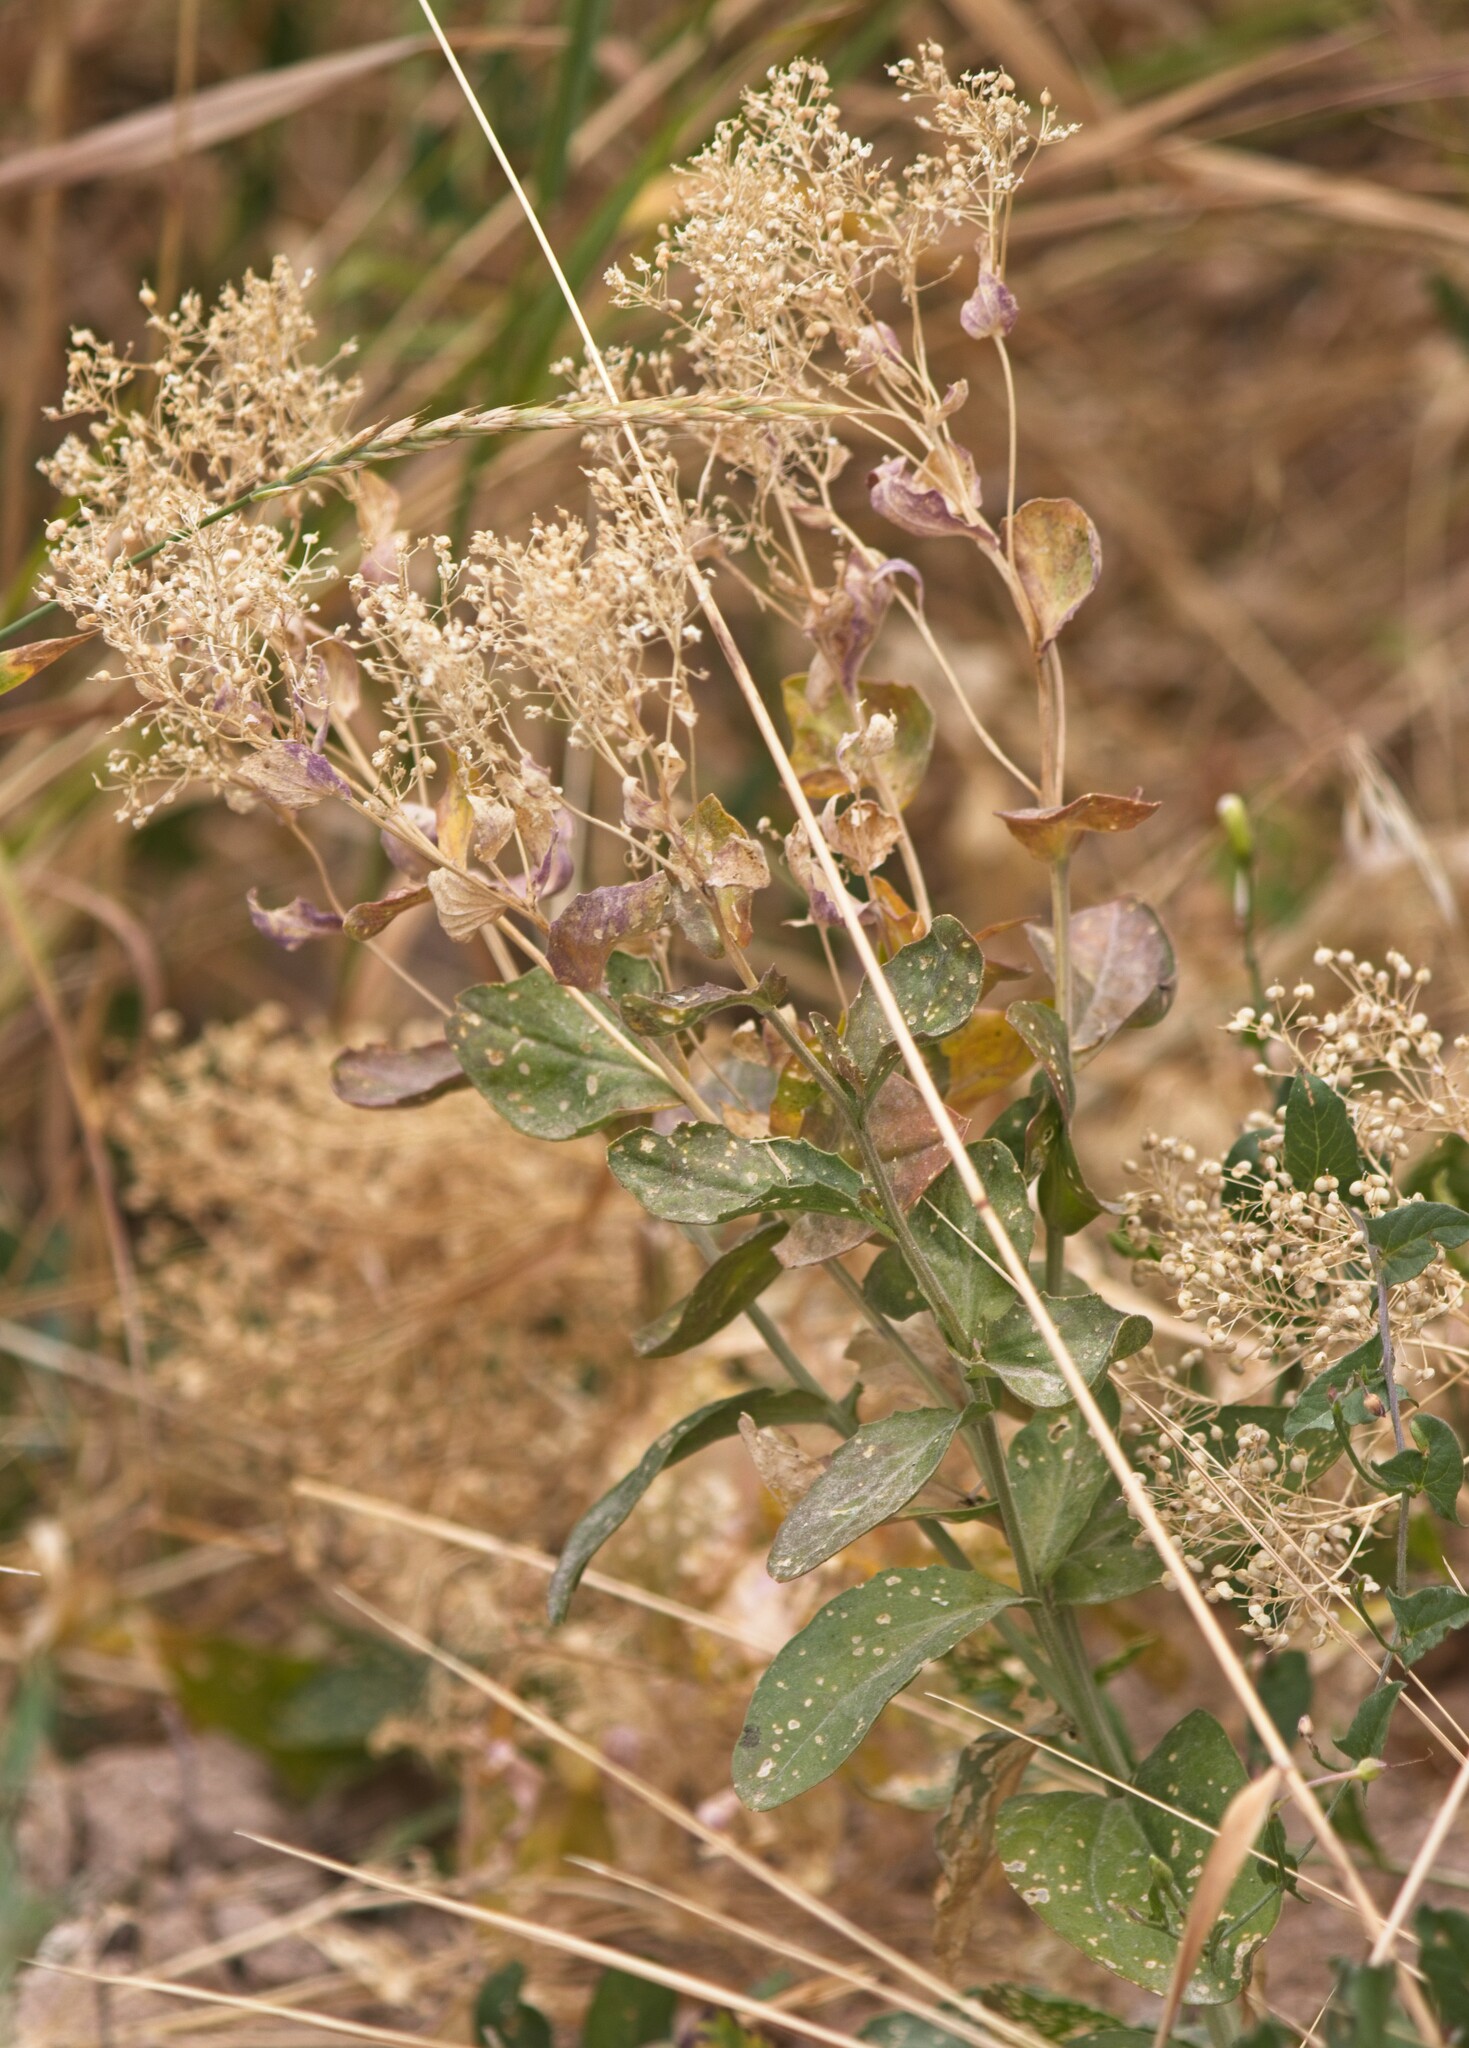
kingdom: Plantae
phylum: Tracheophyta
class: Magnoliopsida
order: Brassicales
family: Brassicaceae
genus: Lepidium
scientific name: Lepidium latifolium
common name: Dittander
